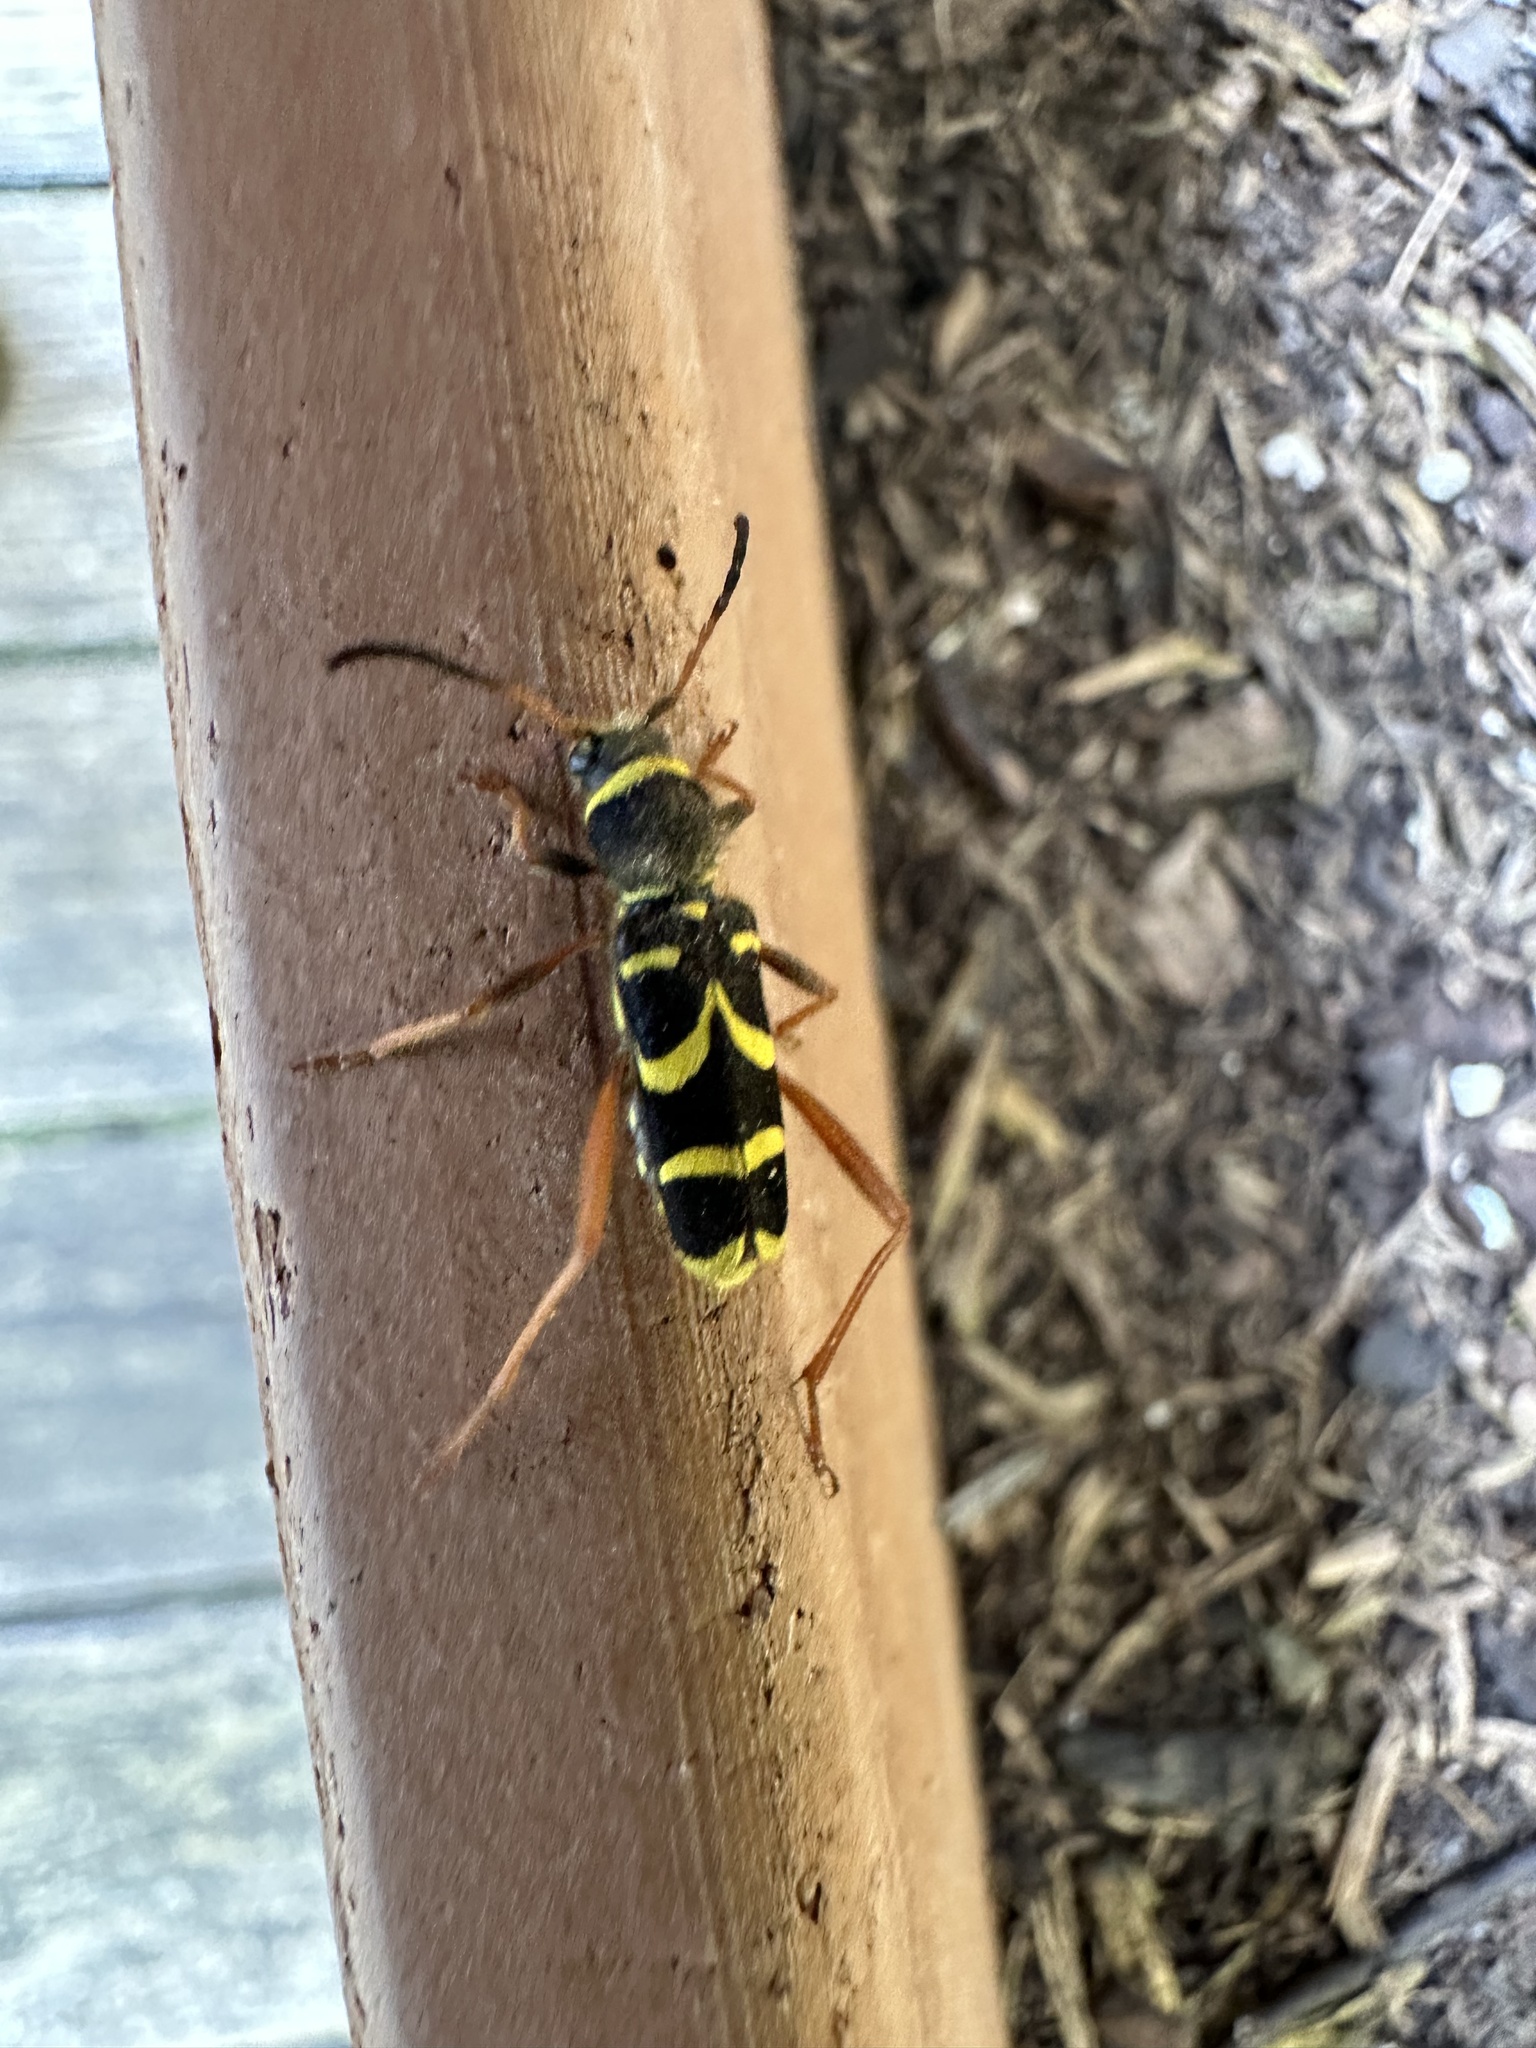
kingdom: Animalia
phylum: Arthropoda
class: Insecta
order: Coleoptera
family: Cerambycidae
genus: Clytus
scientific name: Clytus arietis
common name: Wasp beetle
